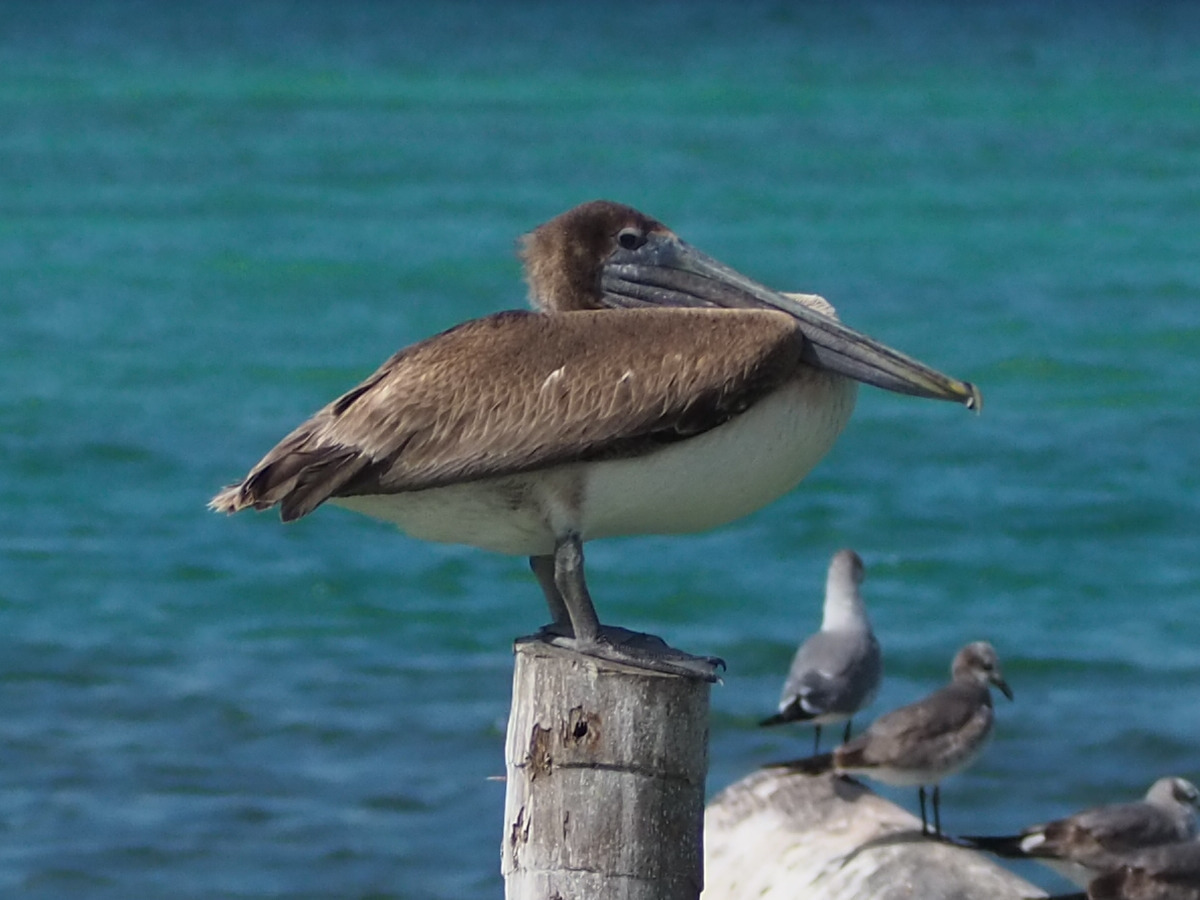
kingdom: Animalia
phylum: Chordata
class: Aves
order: Pelecaniformes
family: Pelecanidae
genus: Pelecanus
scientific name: Pelecanus occidentalis
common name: Brown pelican
